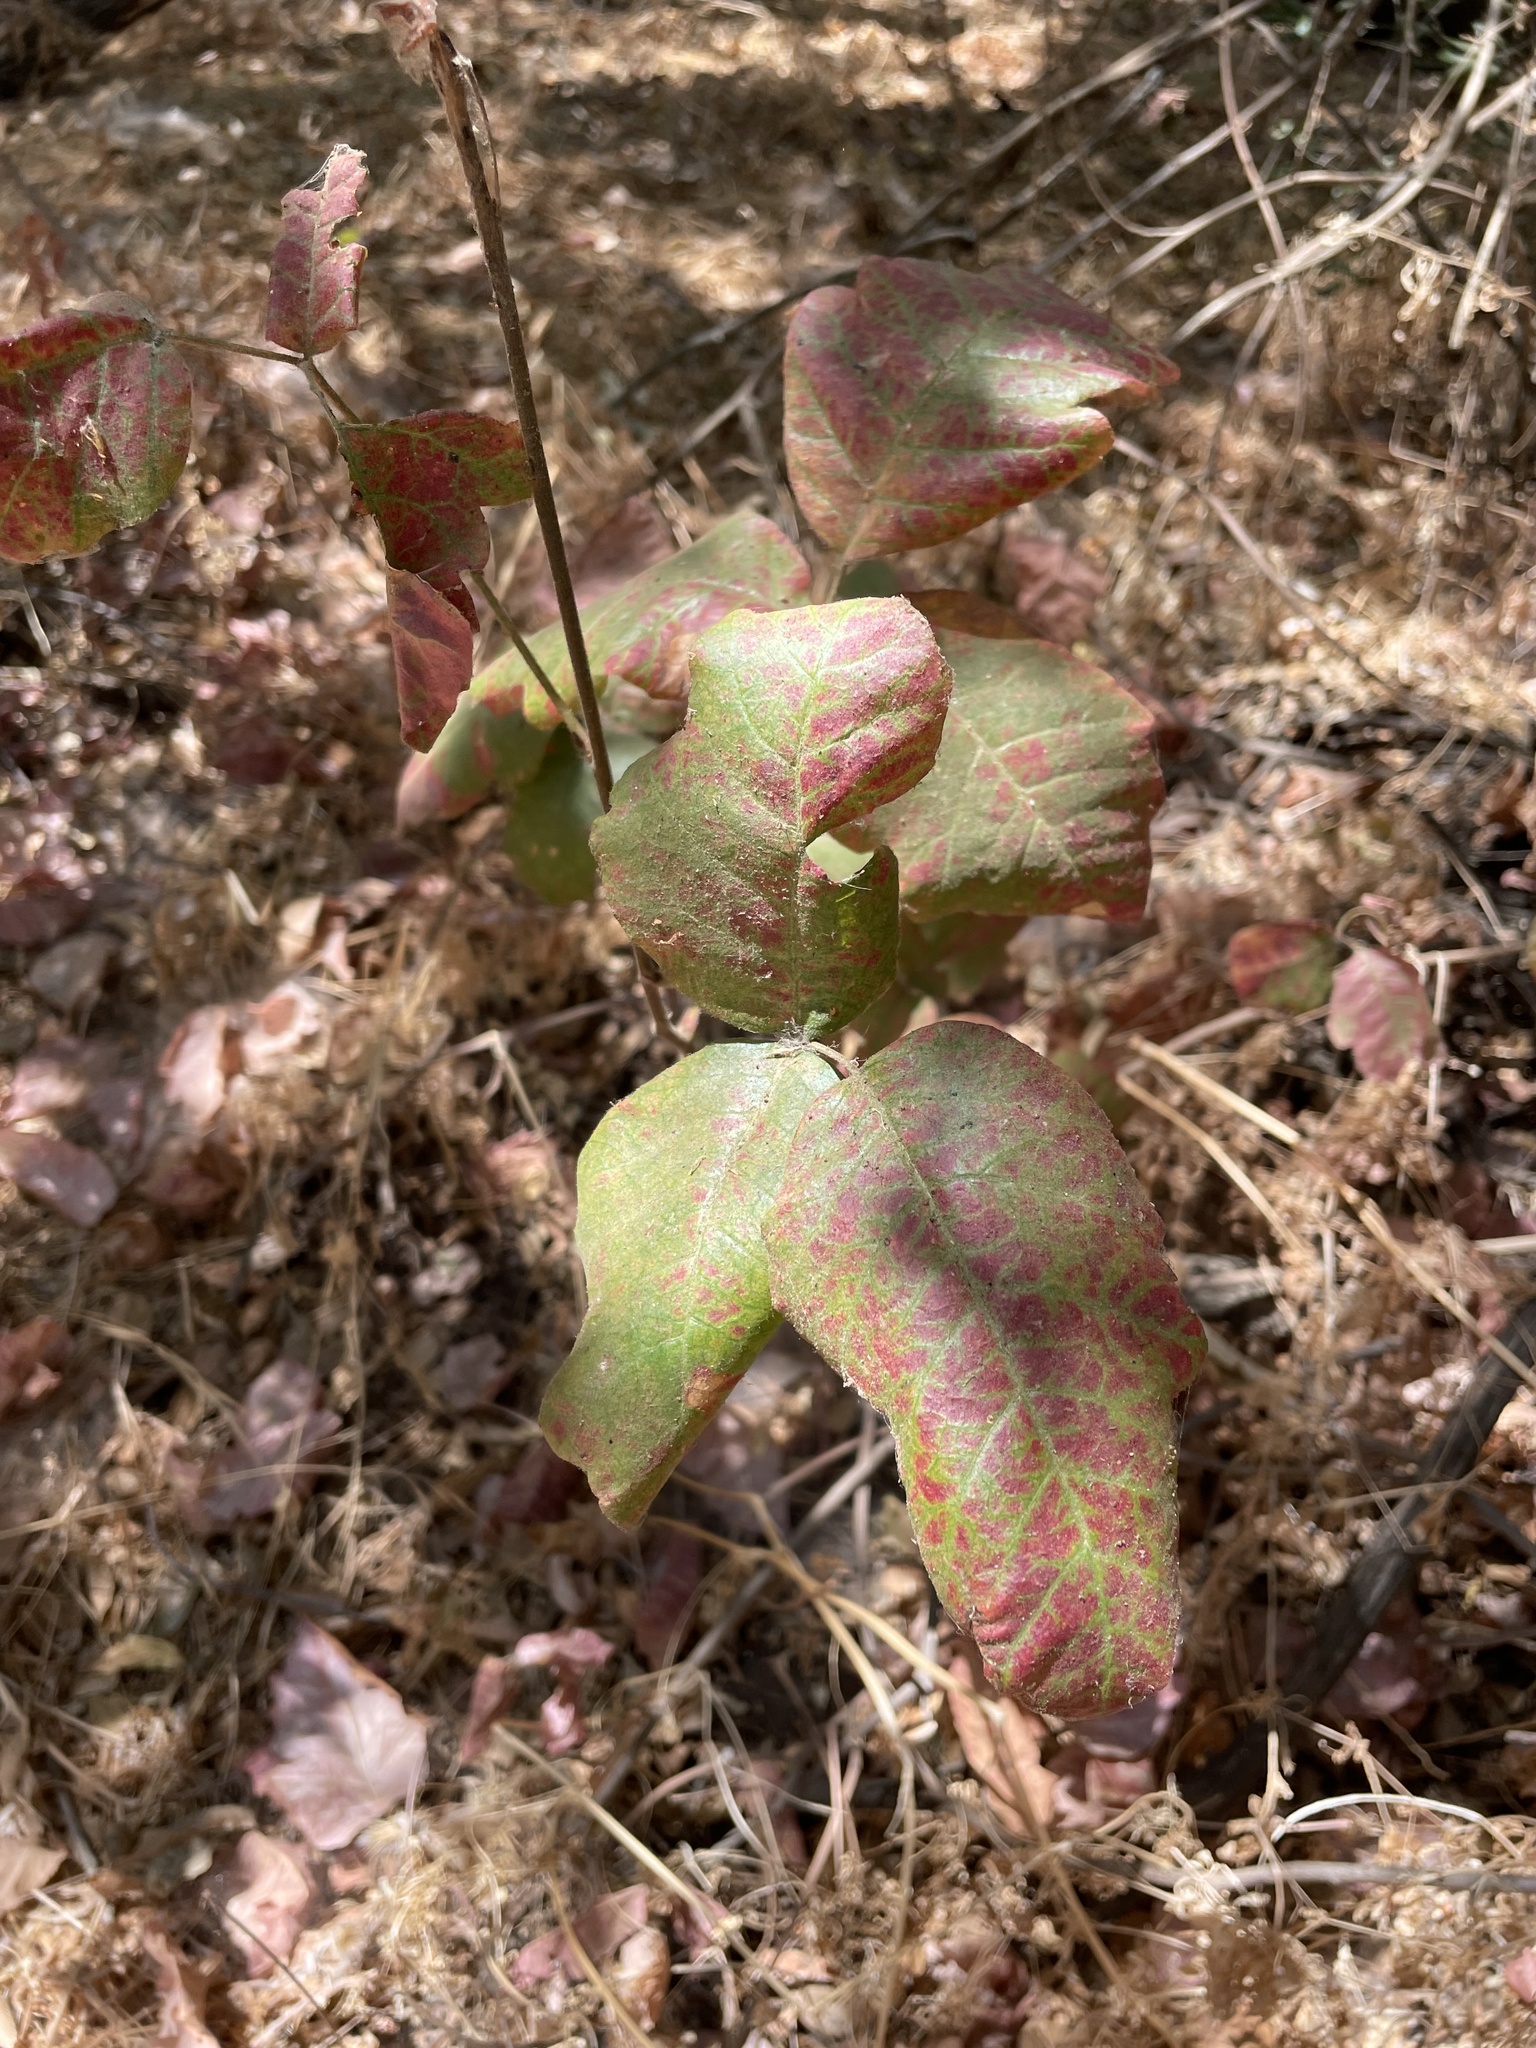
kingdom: Plantae
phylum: Tracheophyta
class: Magnoliopsida
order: Sapindales
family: Anacardiaceae
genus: Toxicodendron
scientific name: Toxicodendron diversilobum
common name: Pacific poison-oak
